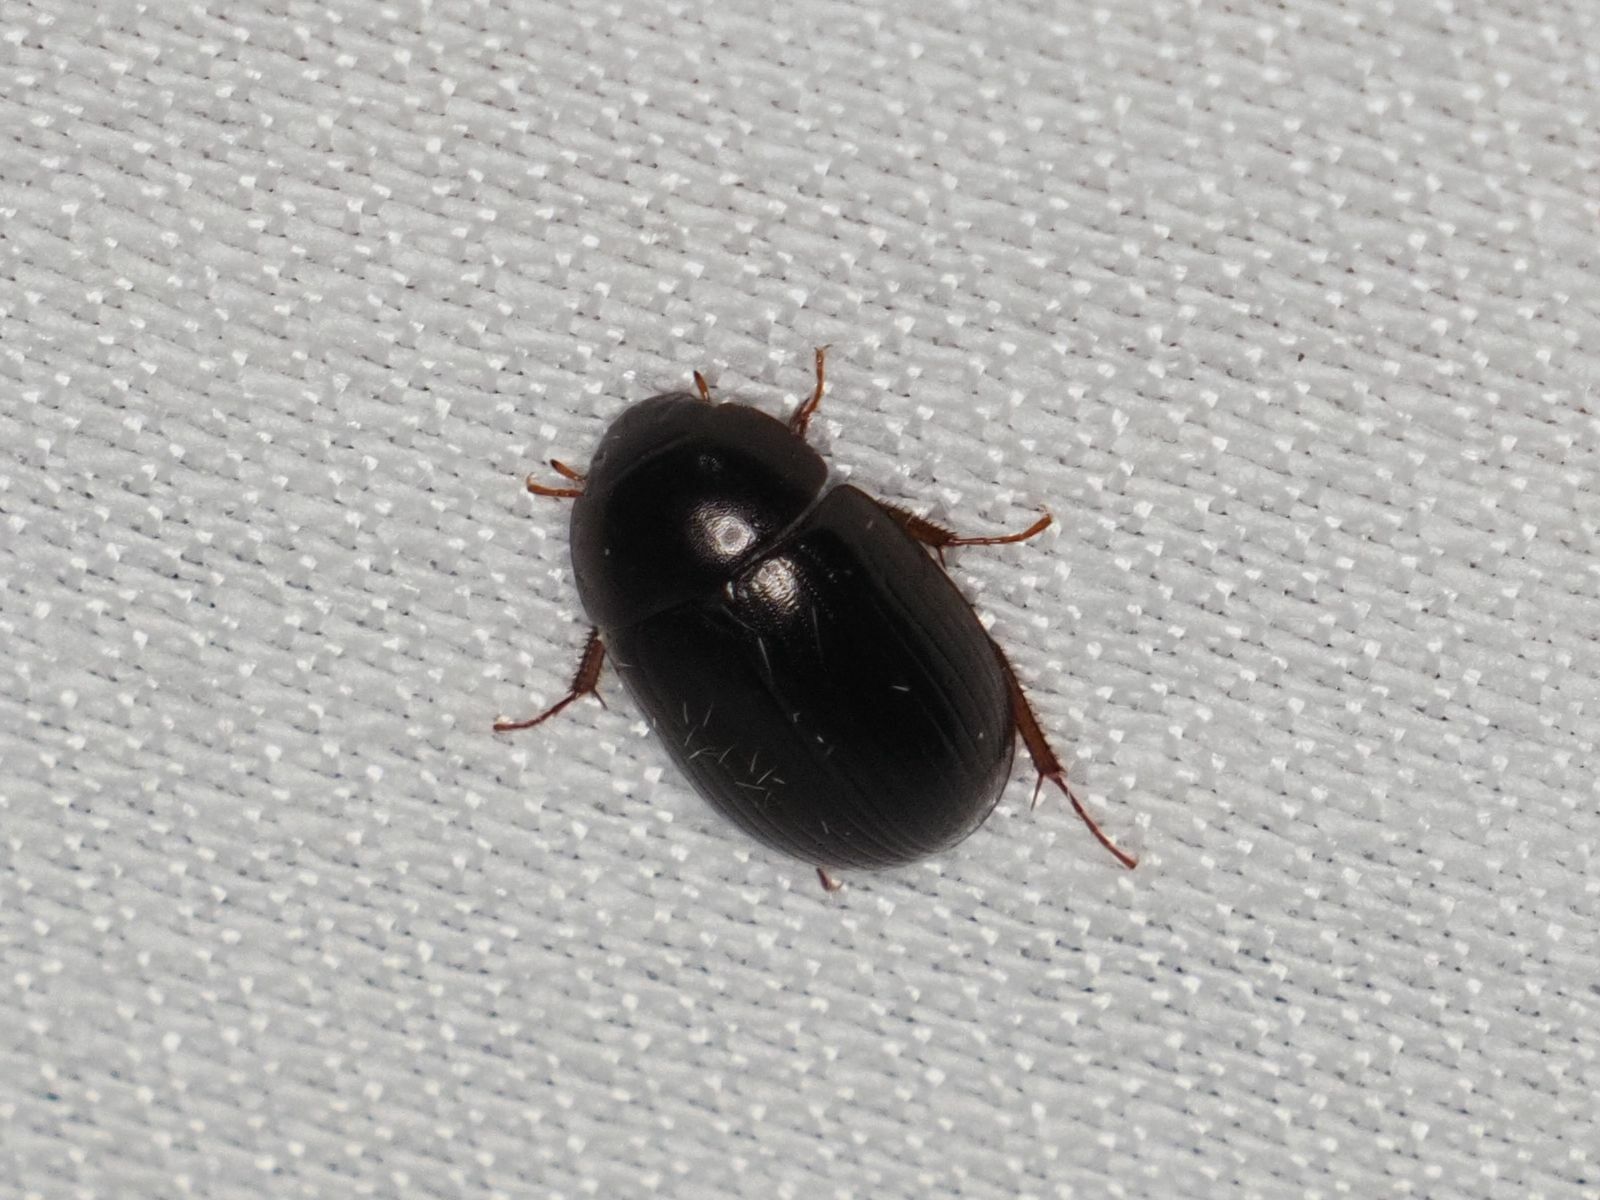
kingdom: Animalia
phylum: Arthropoda
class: Insecta
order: Coleoptera
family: Hydrophilidae
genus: Hydrobius
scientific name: Hydrobius
